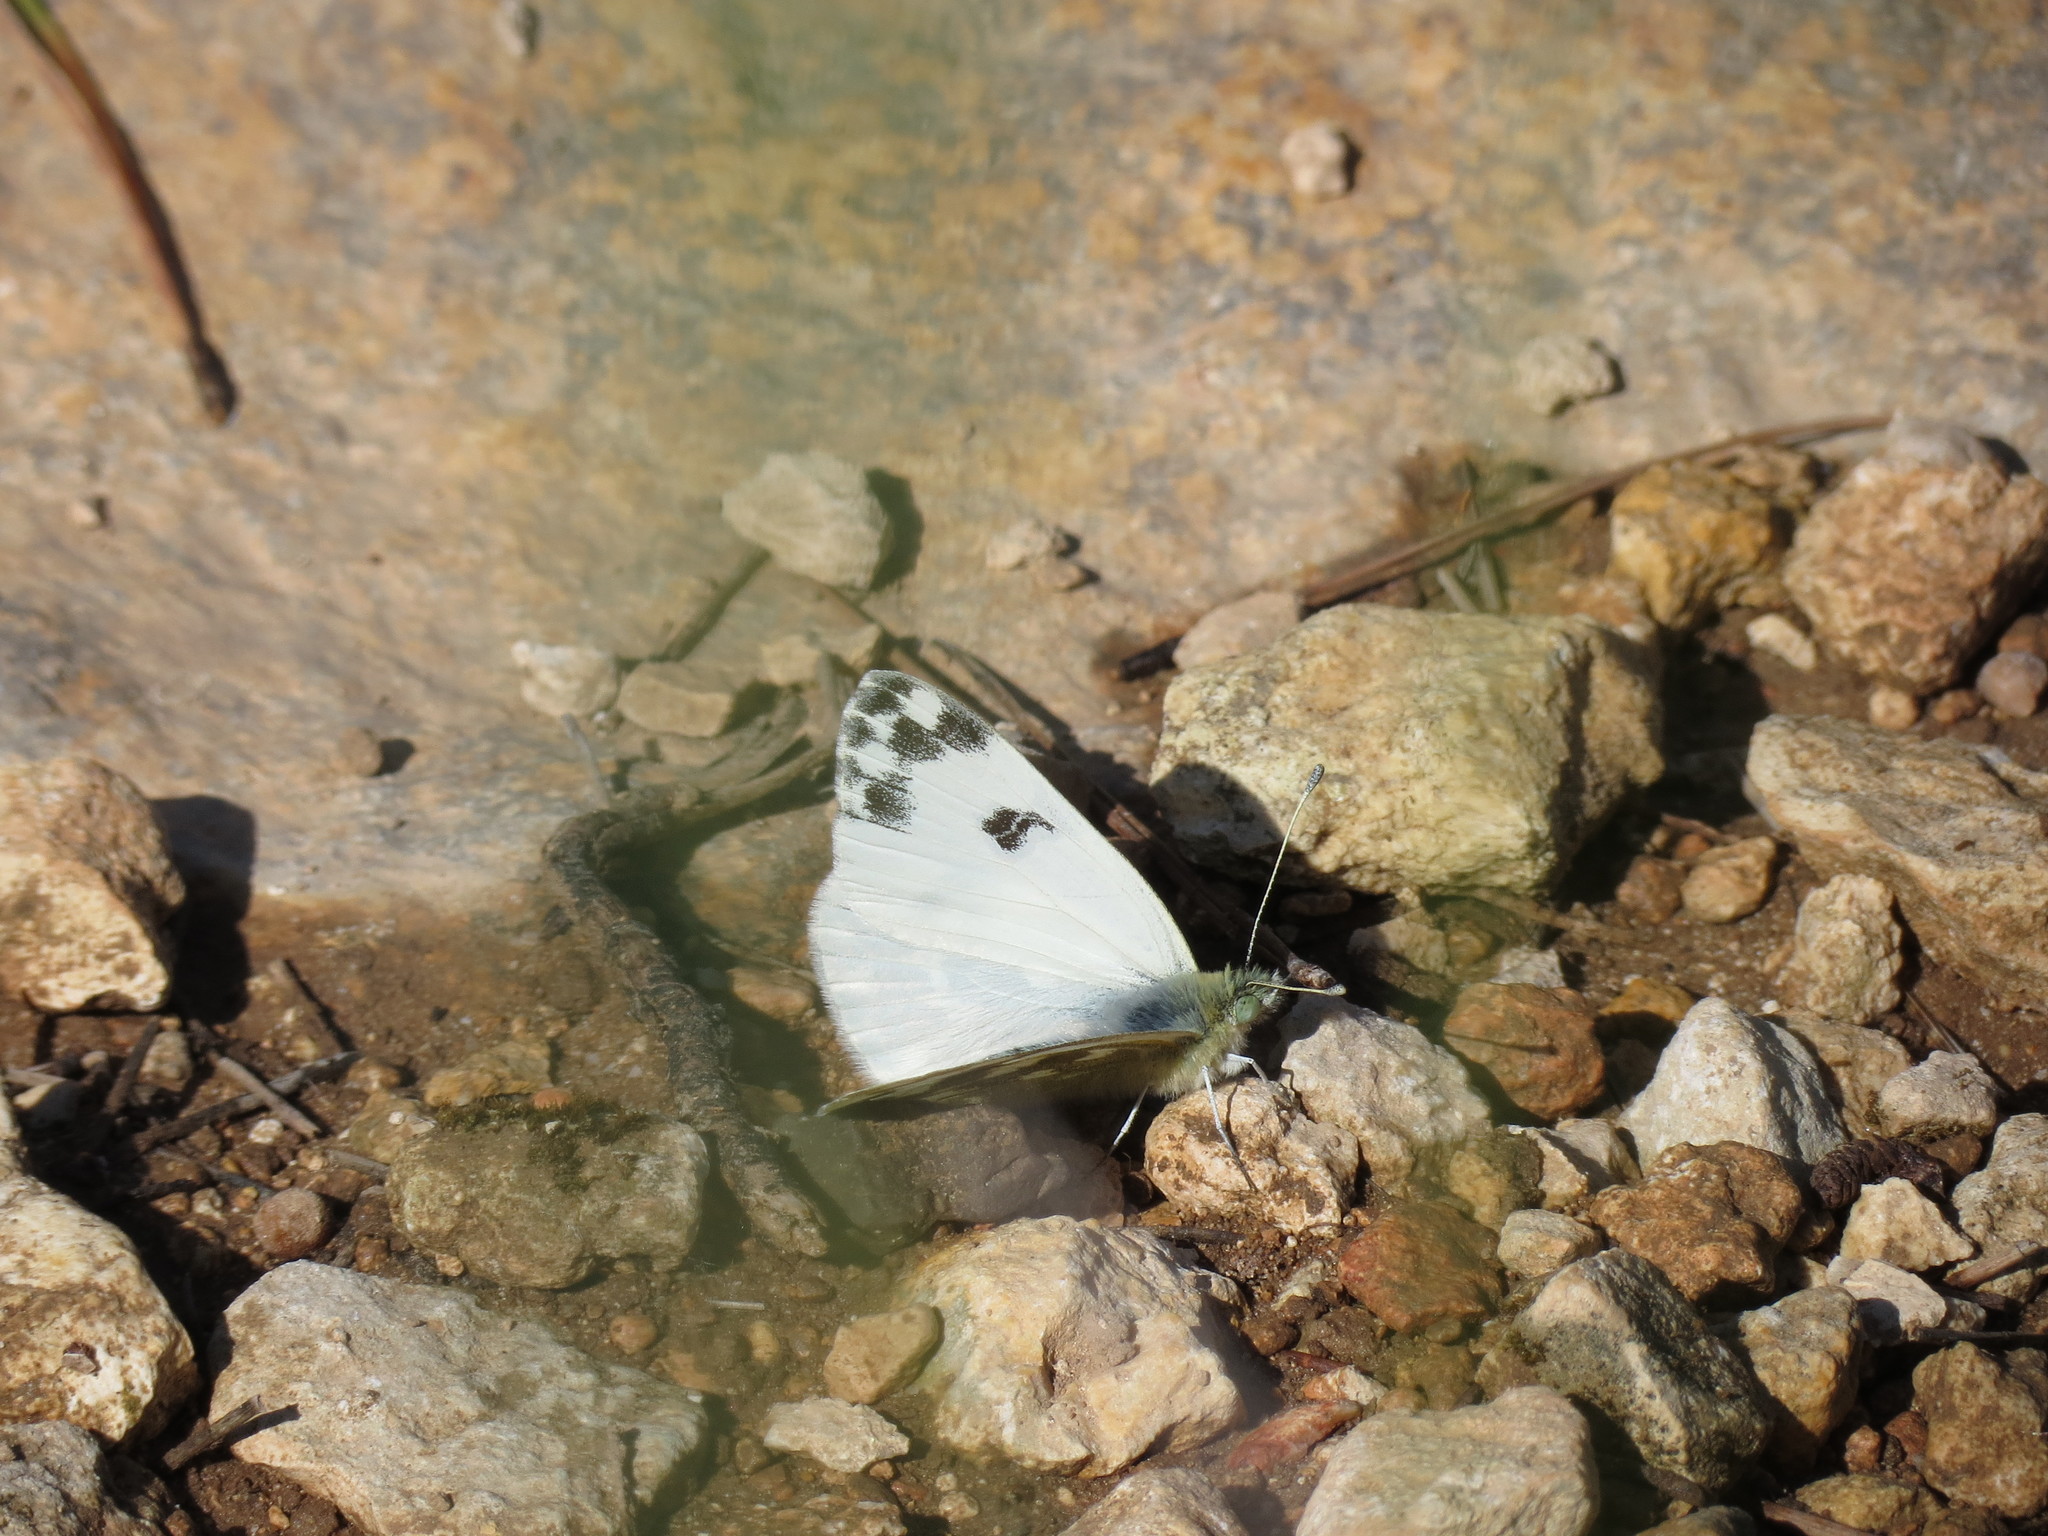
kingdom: Animalia
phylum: Arthropoda
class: Insecta
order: Lepidoptera
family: Pieridae
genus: Pontia
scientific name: Pontia daplidice
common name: Bath white
